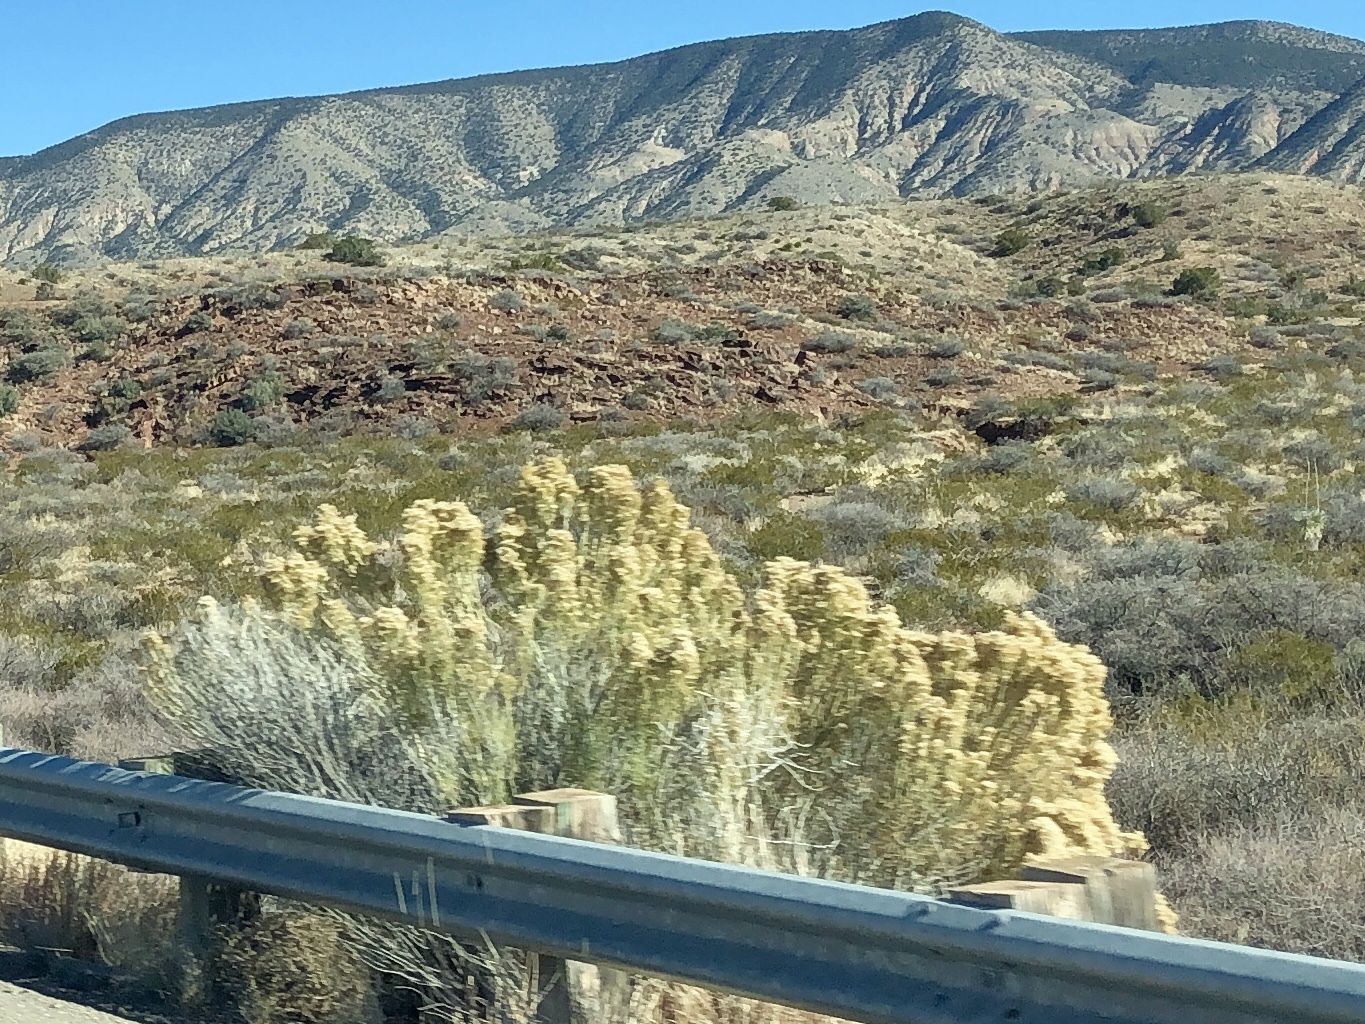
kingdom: Plantae
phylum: Tracheophyta
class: Magnoliopsida
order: Asterales
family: Asteraceae
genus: Baccharis
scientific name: Baccharis sarothroides
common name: Desert-broom
